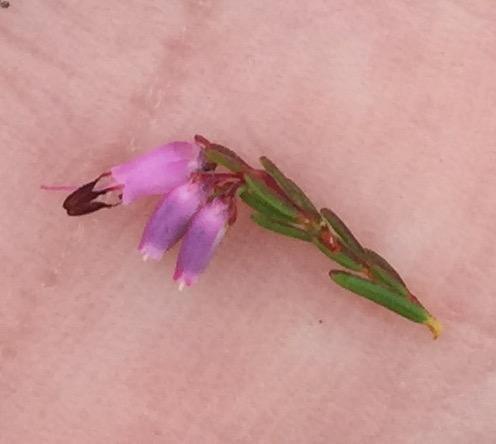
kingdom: Plantae
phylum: Tracheophyta
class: Magnoliopsida
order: Ericales
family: Ericaceae
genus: Erica
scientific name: Erica rosacea
